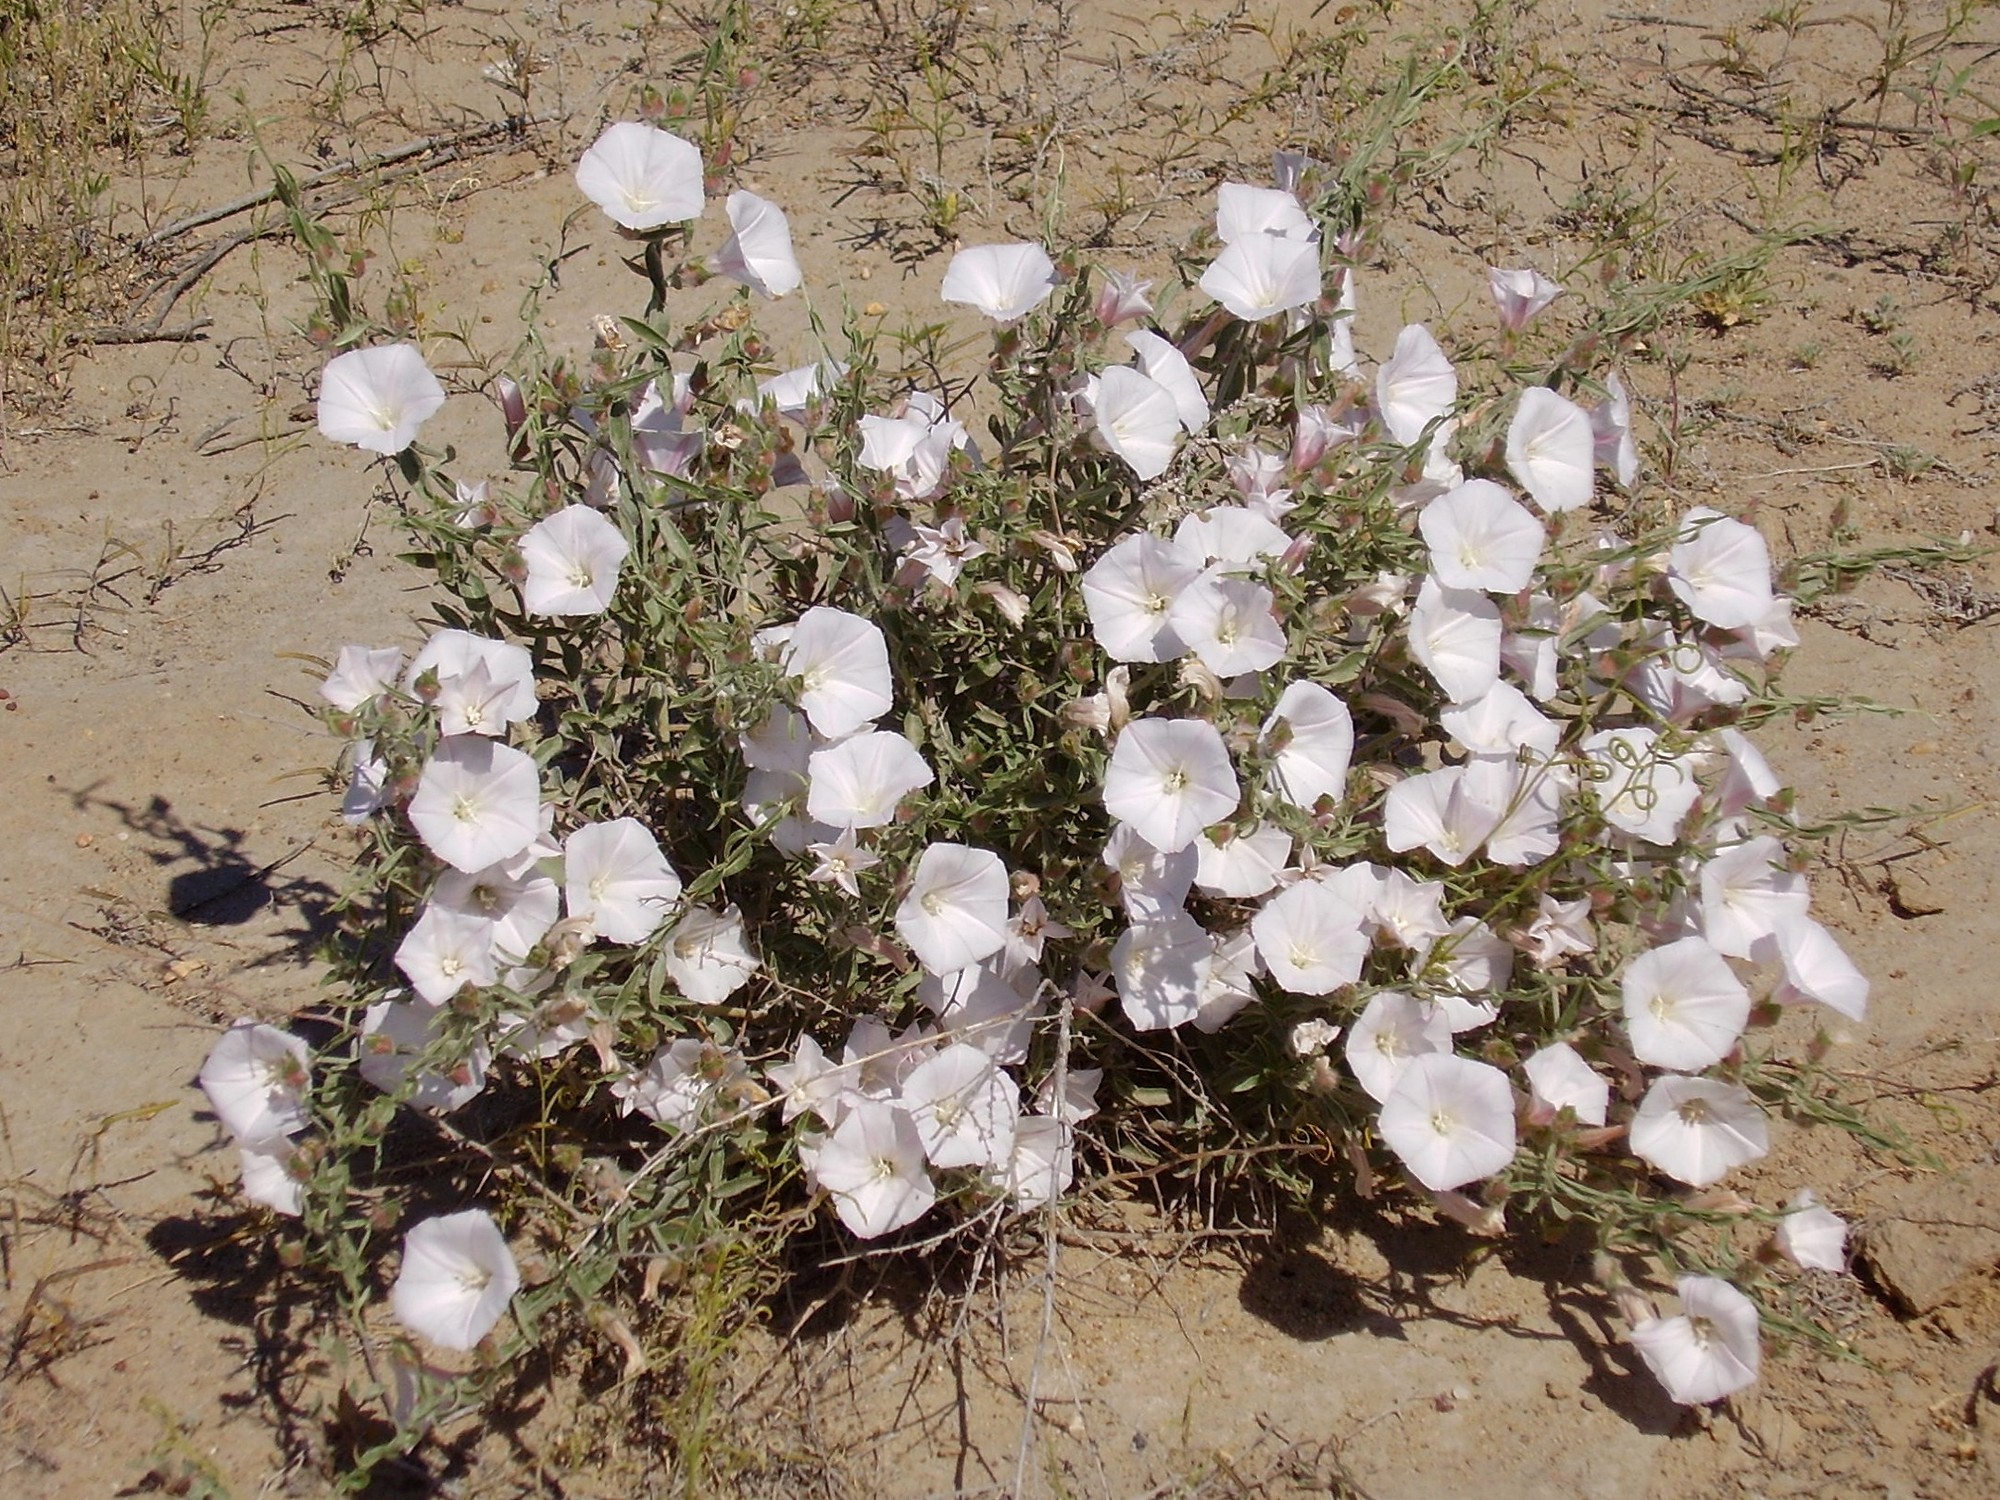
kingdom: Plantae
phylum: Tracheophyta
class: Magnoliopsida
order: Solanales
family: Convolvulaceae
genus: Convolvulus
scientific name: Convolvulus fruticosus
